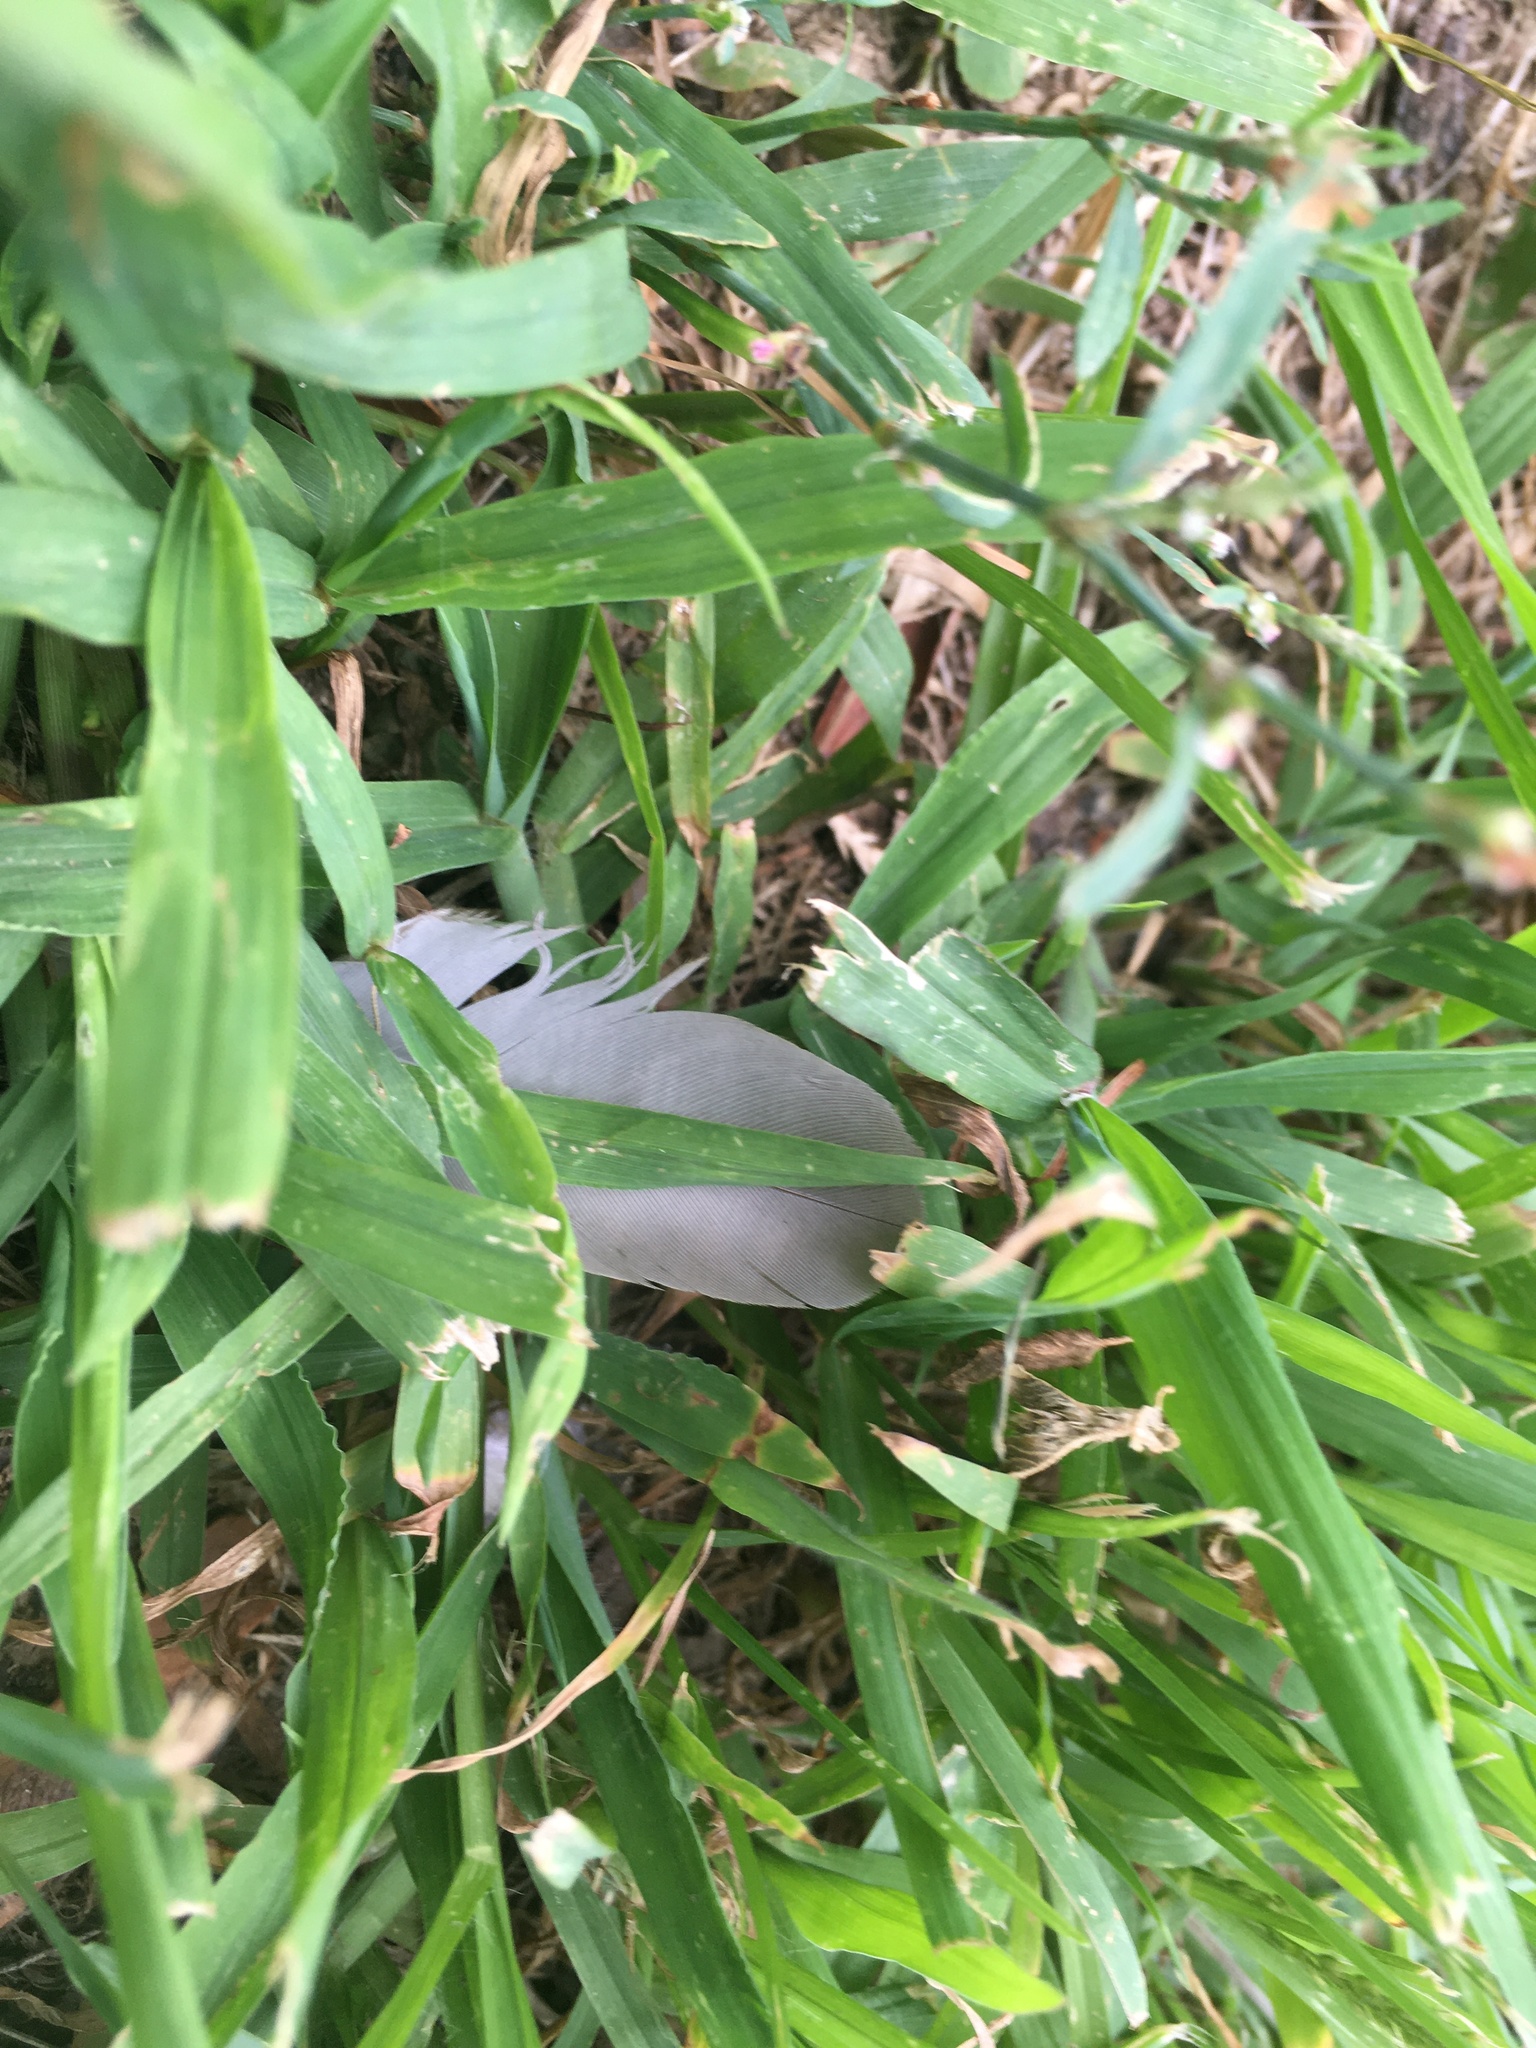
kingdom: Animalia
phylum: Chordata
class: Aves
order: Columbiformes
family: Columbidae
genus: Zenaida
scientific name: Zenaida macroura
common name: Mourning dove
